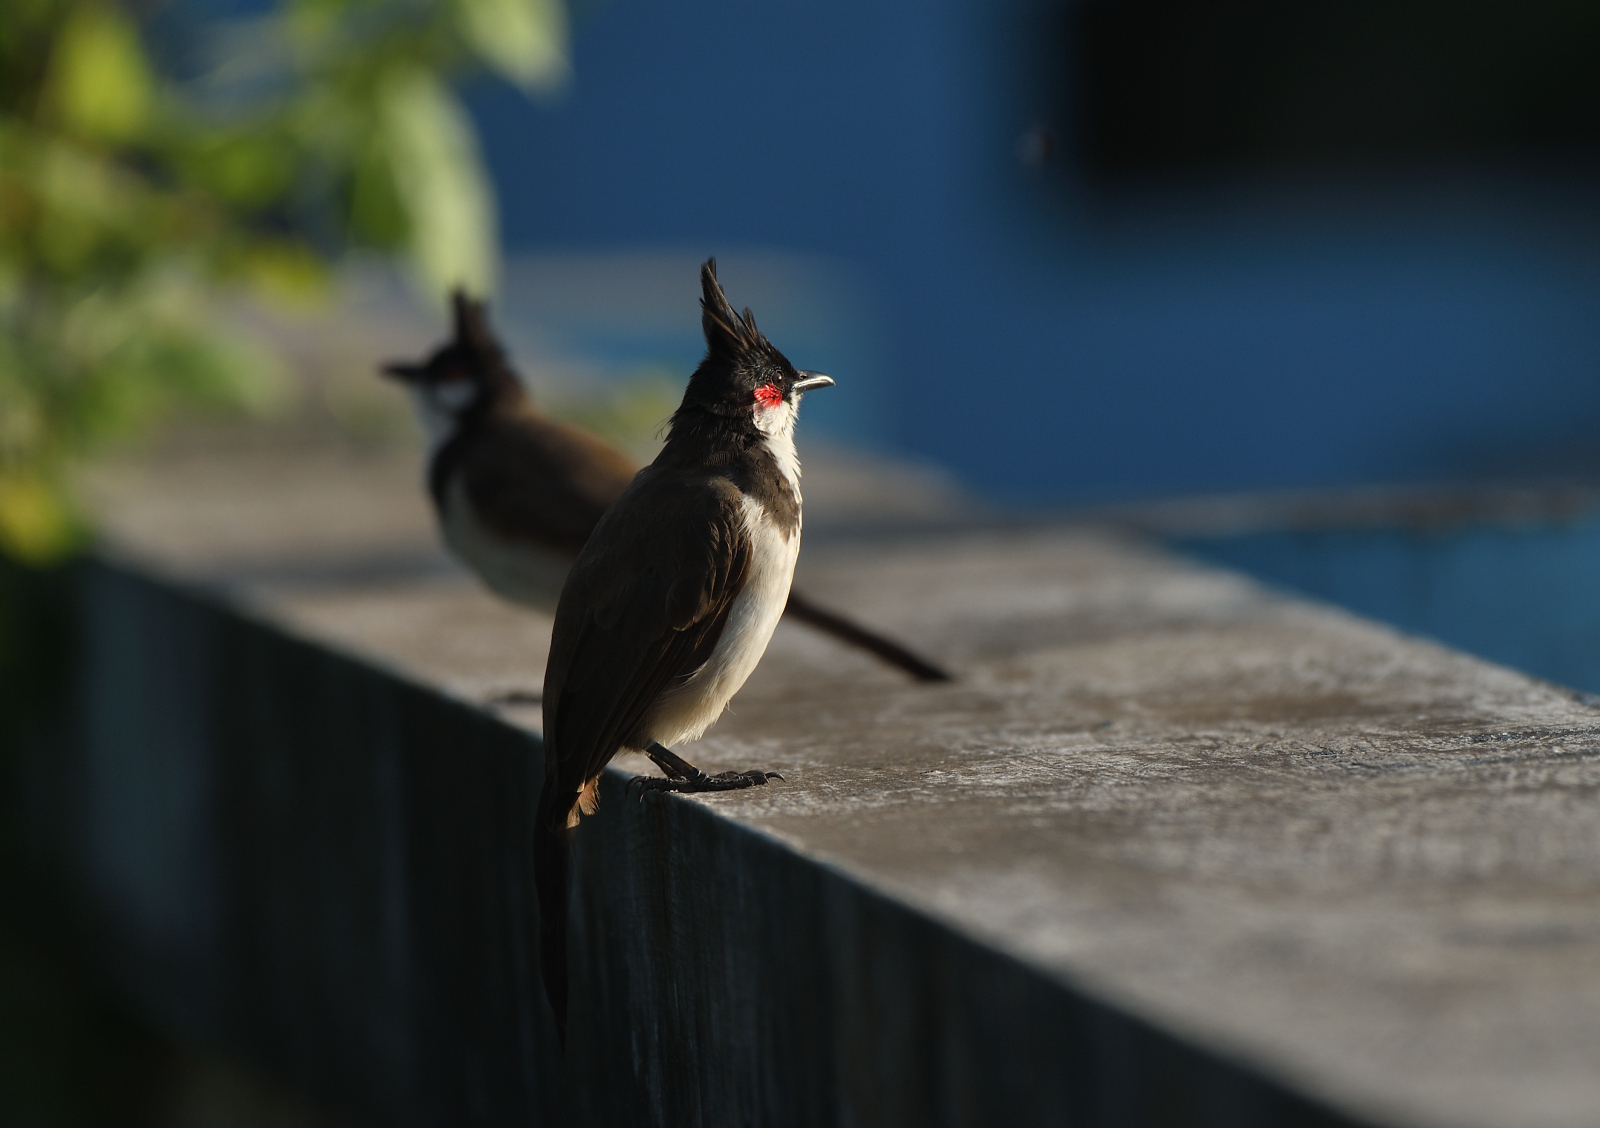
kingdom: Animalia
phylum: Chordata
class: Aves
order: Passeriformes
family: Pycnonotidae
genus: Pycnonotus
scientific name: Pycnonotus jocosus
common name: Red-whiskered bulbul
